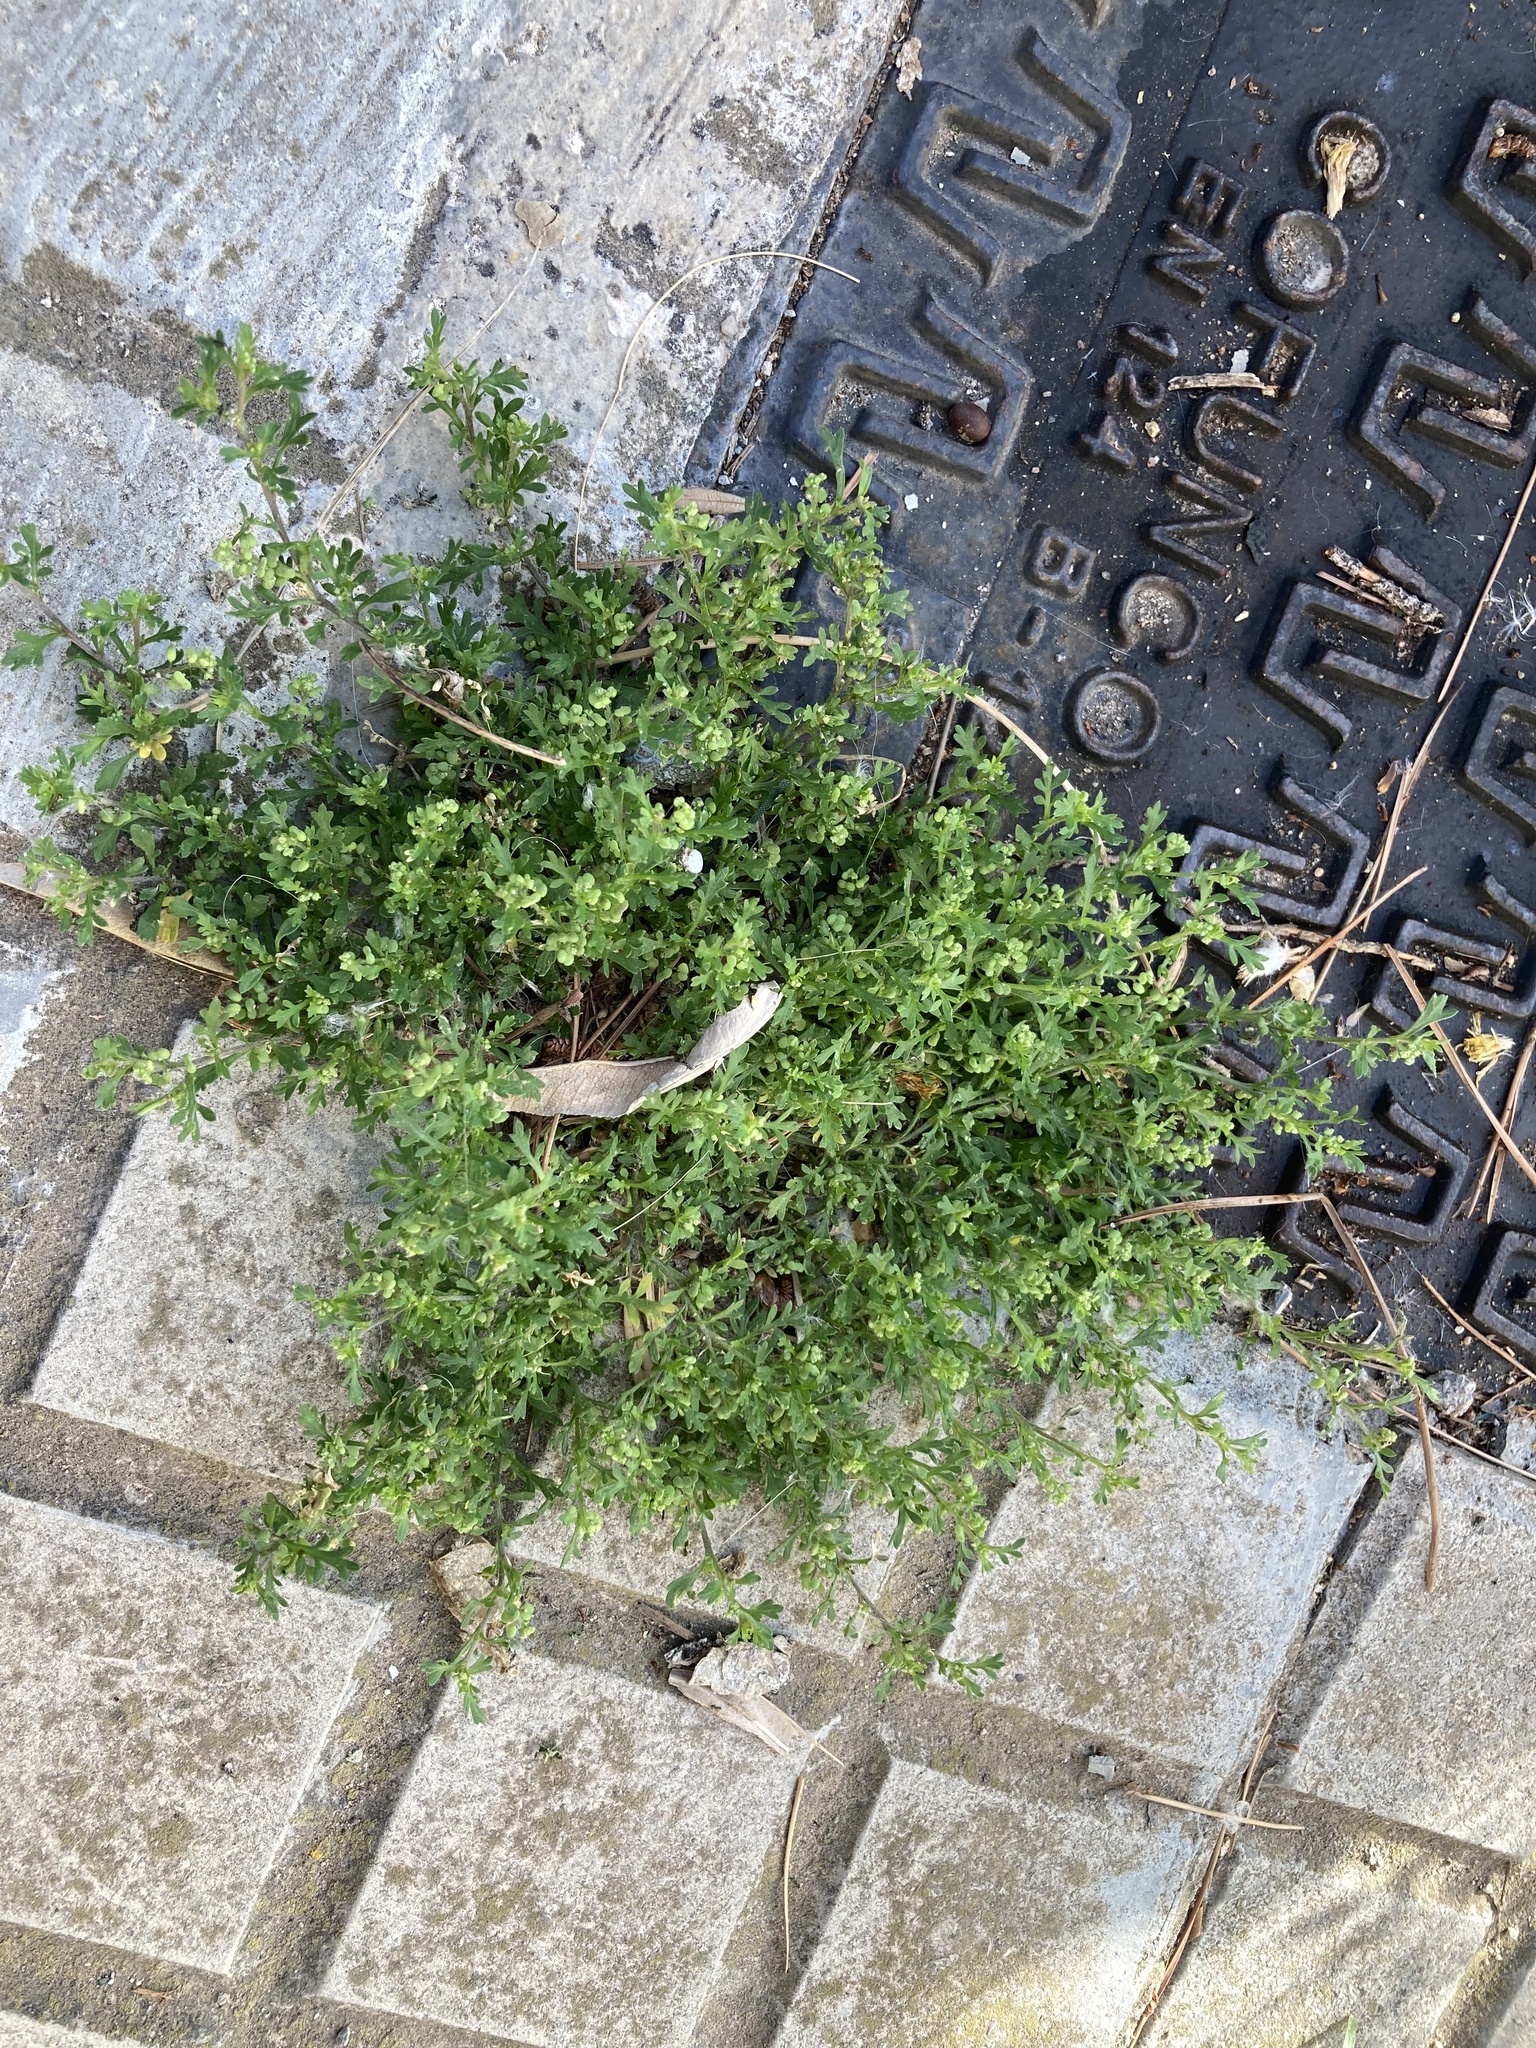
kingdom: Plantae
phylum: Tracheophyta
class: Magnoliopsida
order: Brassicales
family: Brassicaceae
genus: Lepidium
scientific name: Lepidium didymum
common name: Lesser swinecress
